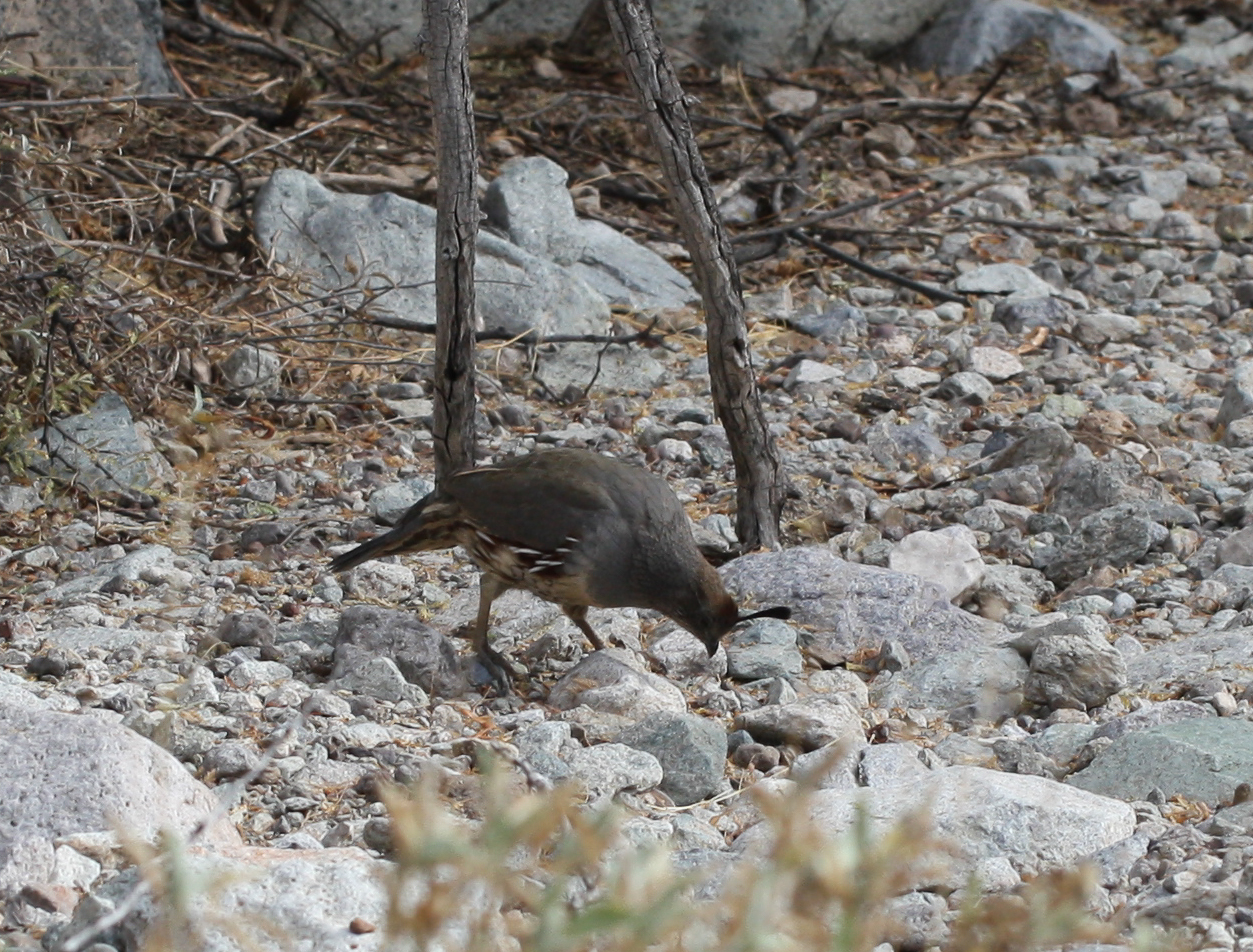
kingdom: Animalia
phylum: Chordata
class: Aves
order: Galliformes
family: Odontophoridae
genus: Callipepla
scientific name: Callipepla gambelii
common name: Gambel's quail
